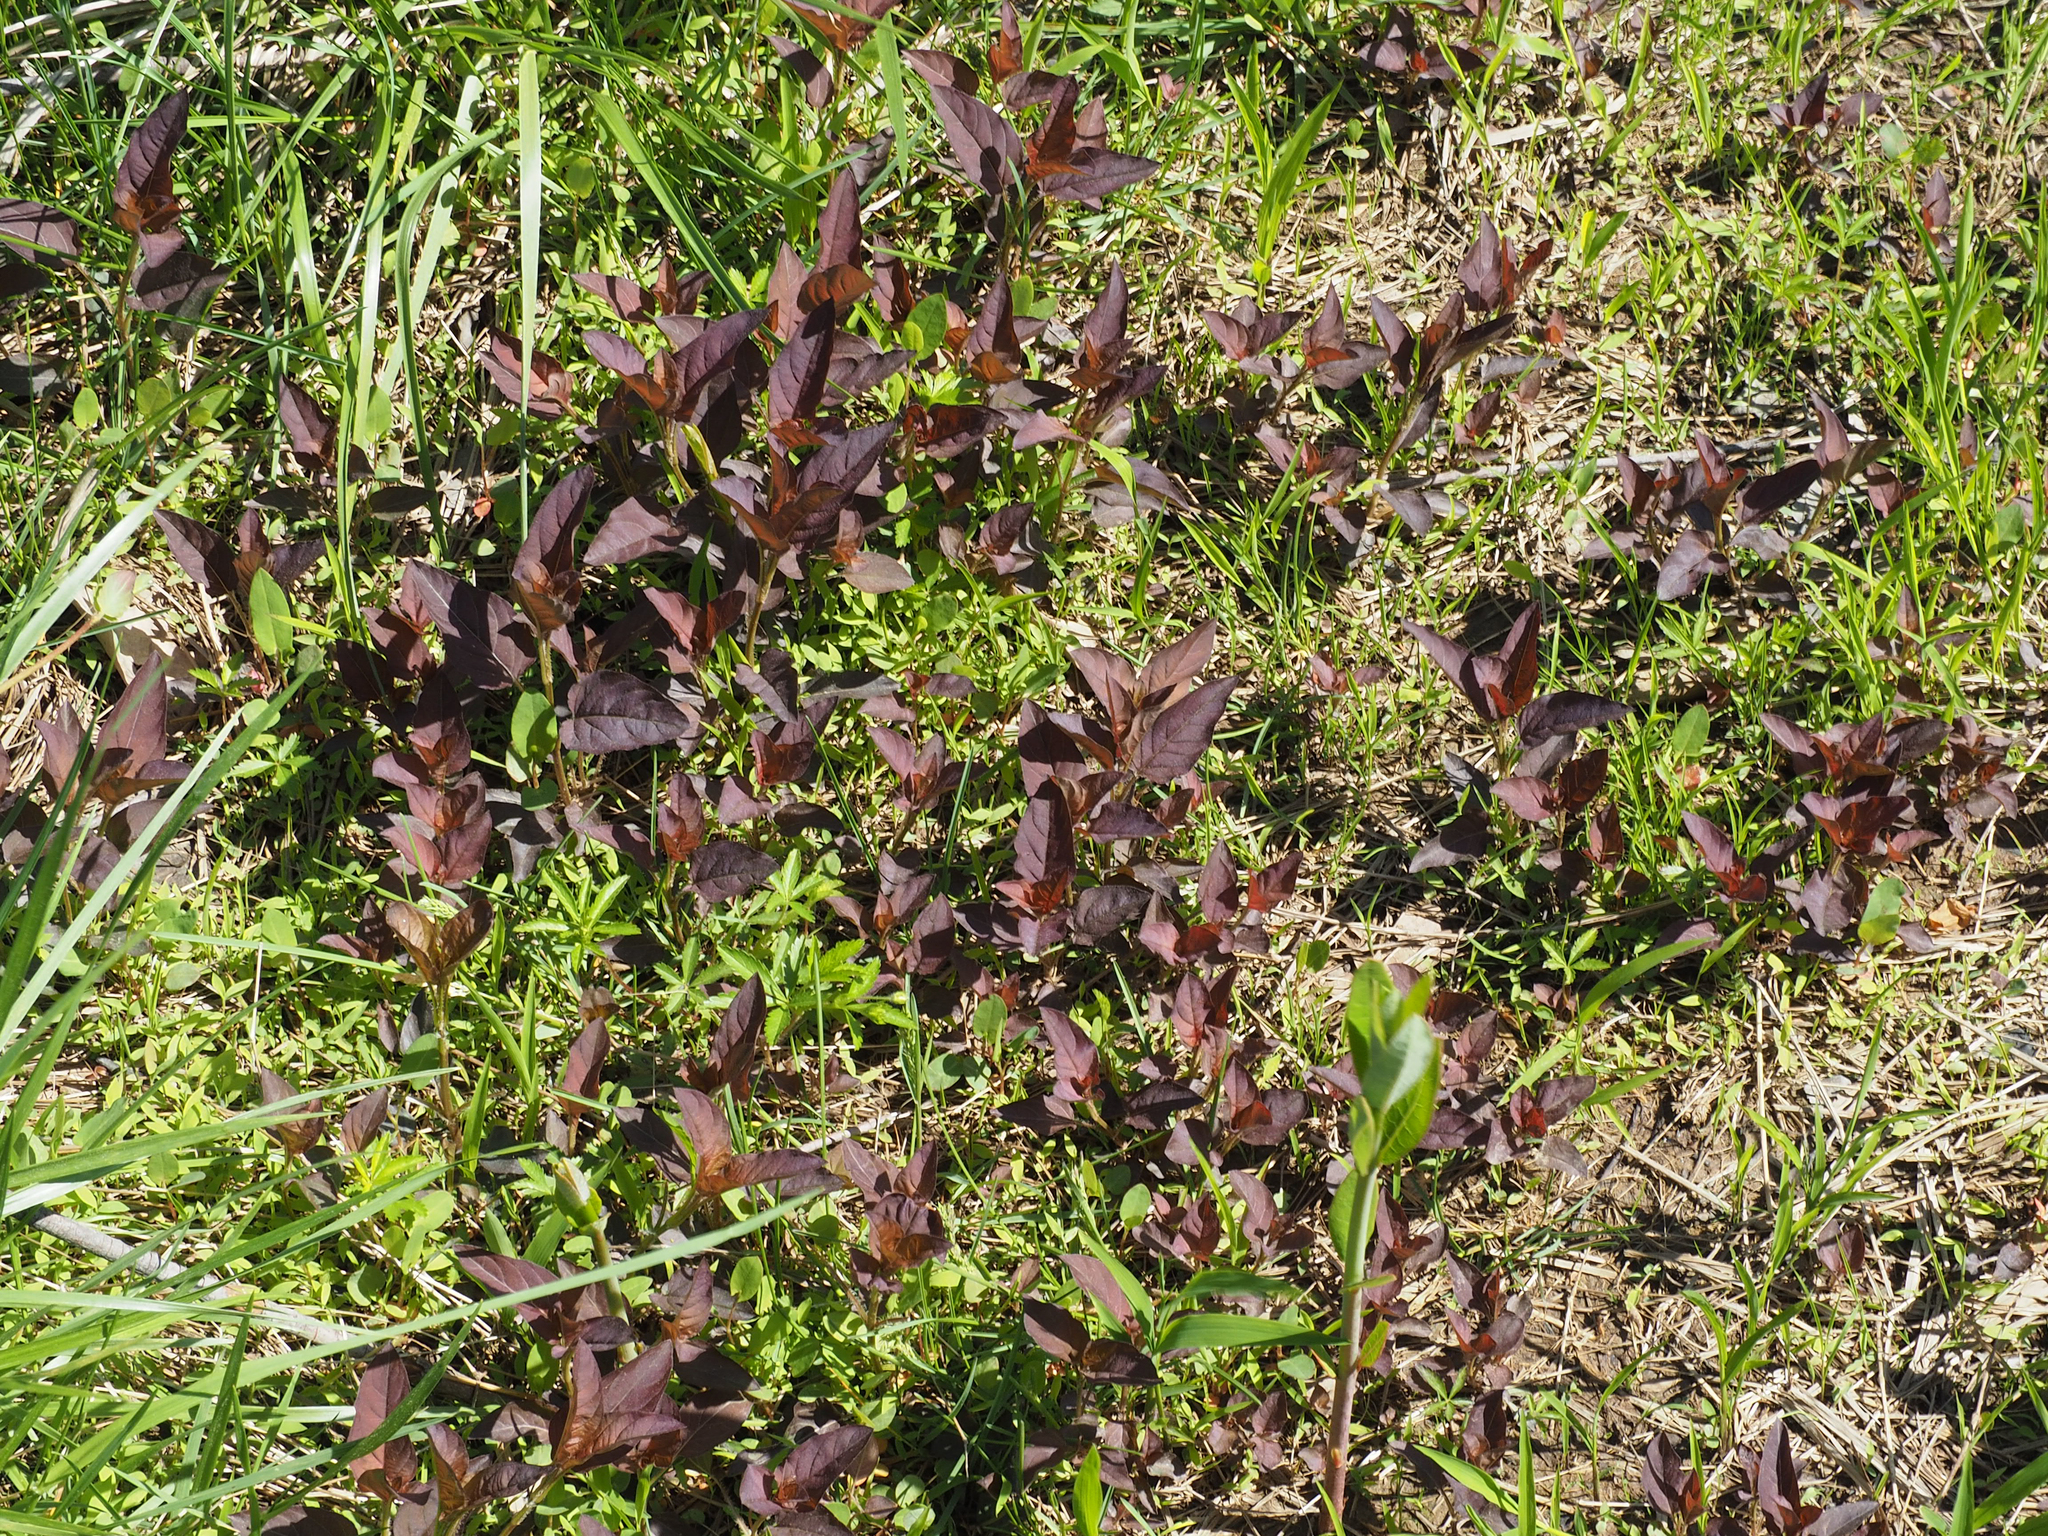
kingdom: Plantae
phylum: Tracheophyta
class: Magnoliopsida
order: Ericales
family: Primulaceae
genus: Lysimachia
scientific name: Lysimachia ciliata
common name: Fringed loosestrife
